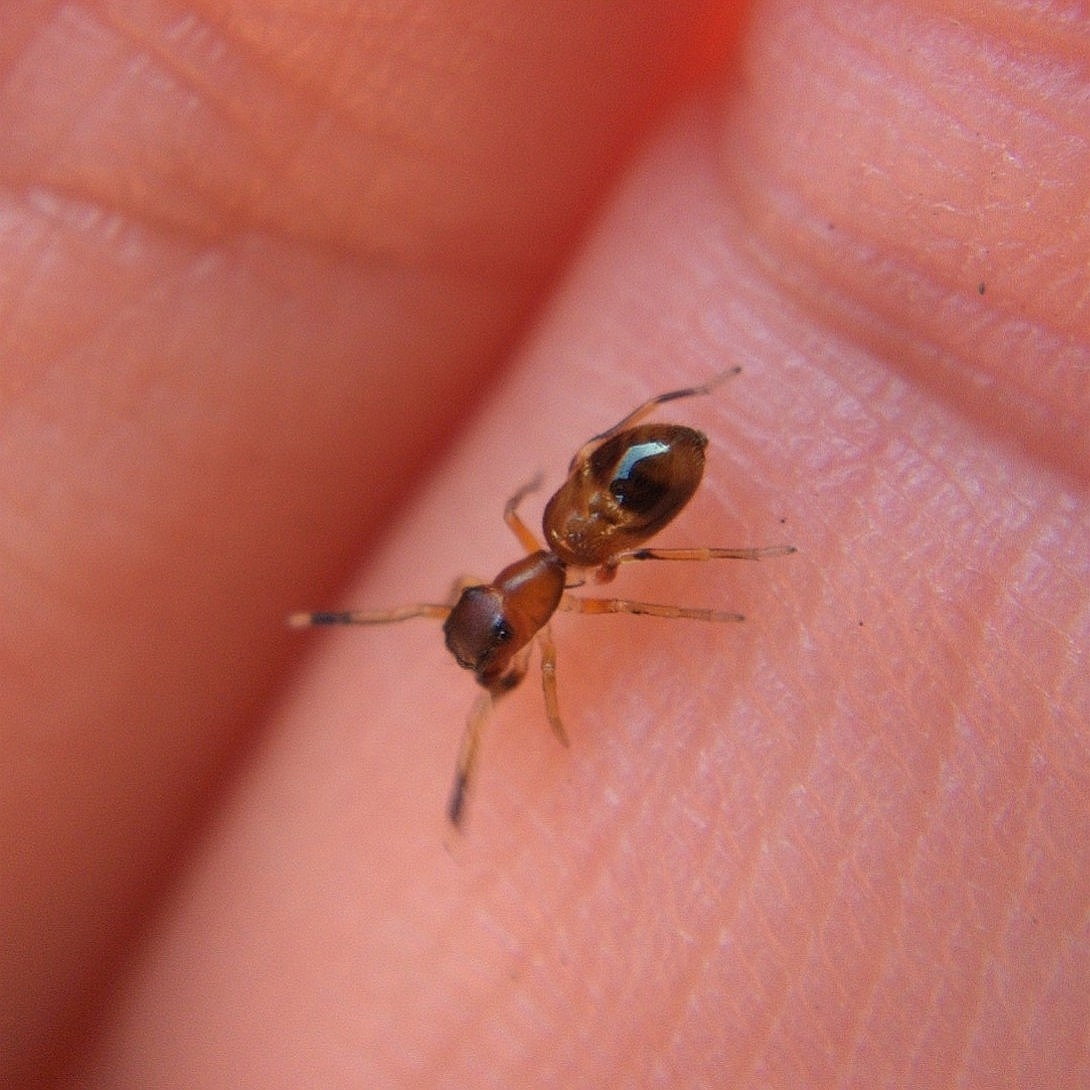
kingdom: Animalia
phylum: Arthropoda
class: Arachnida
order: Araneae
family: Salticidae
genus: Myrmarachne
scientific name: Myrmarachne formicaria
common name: Ant mimic jumping spider
